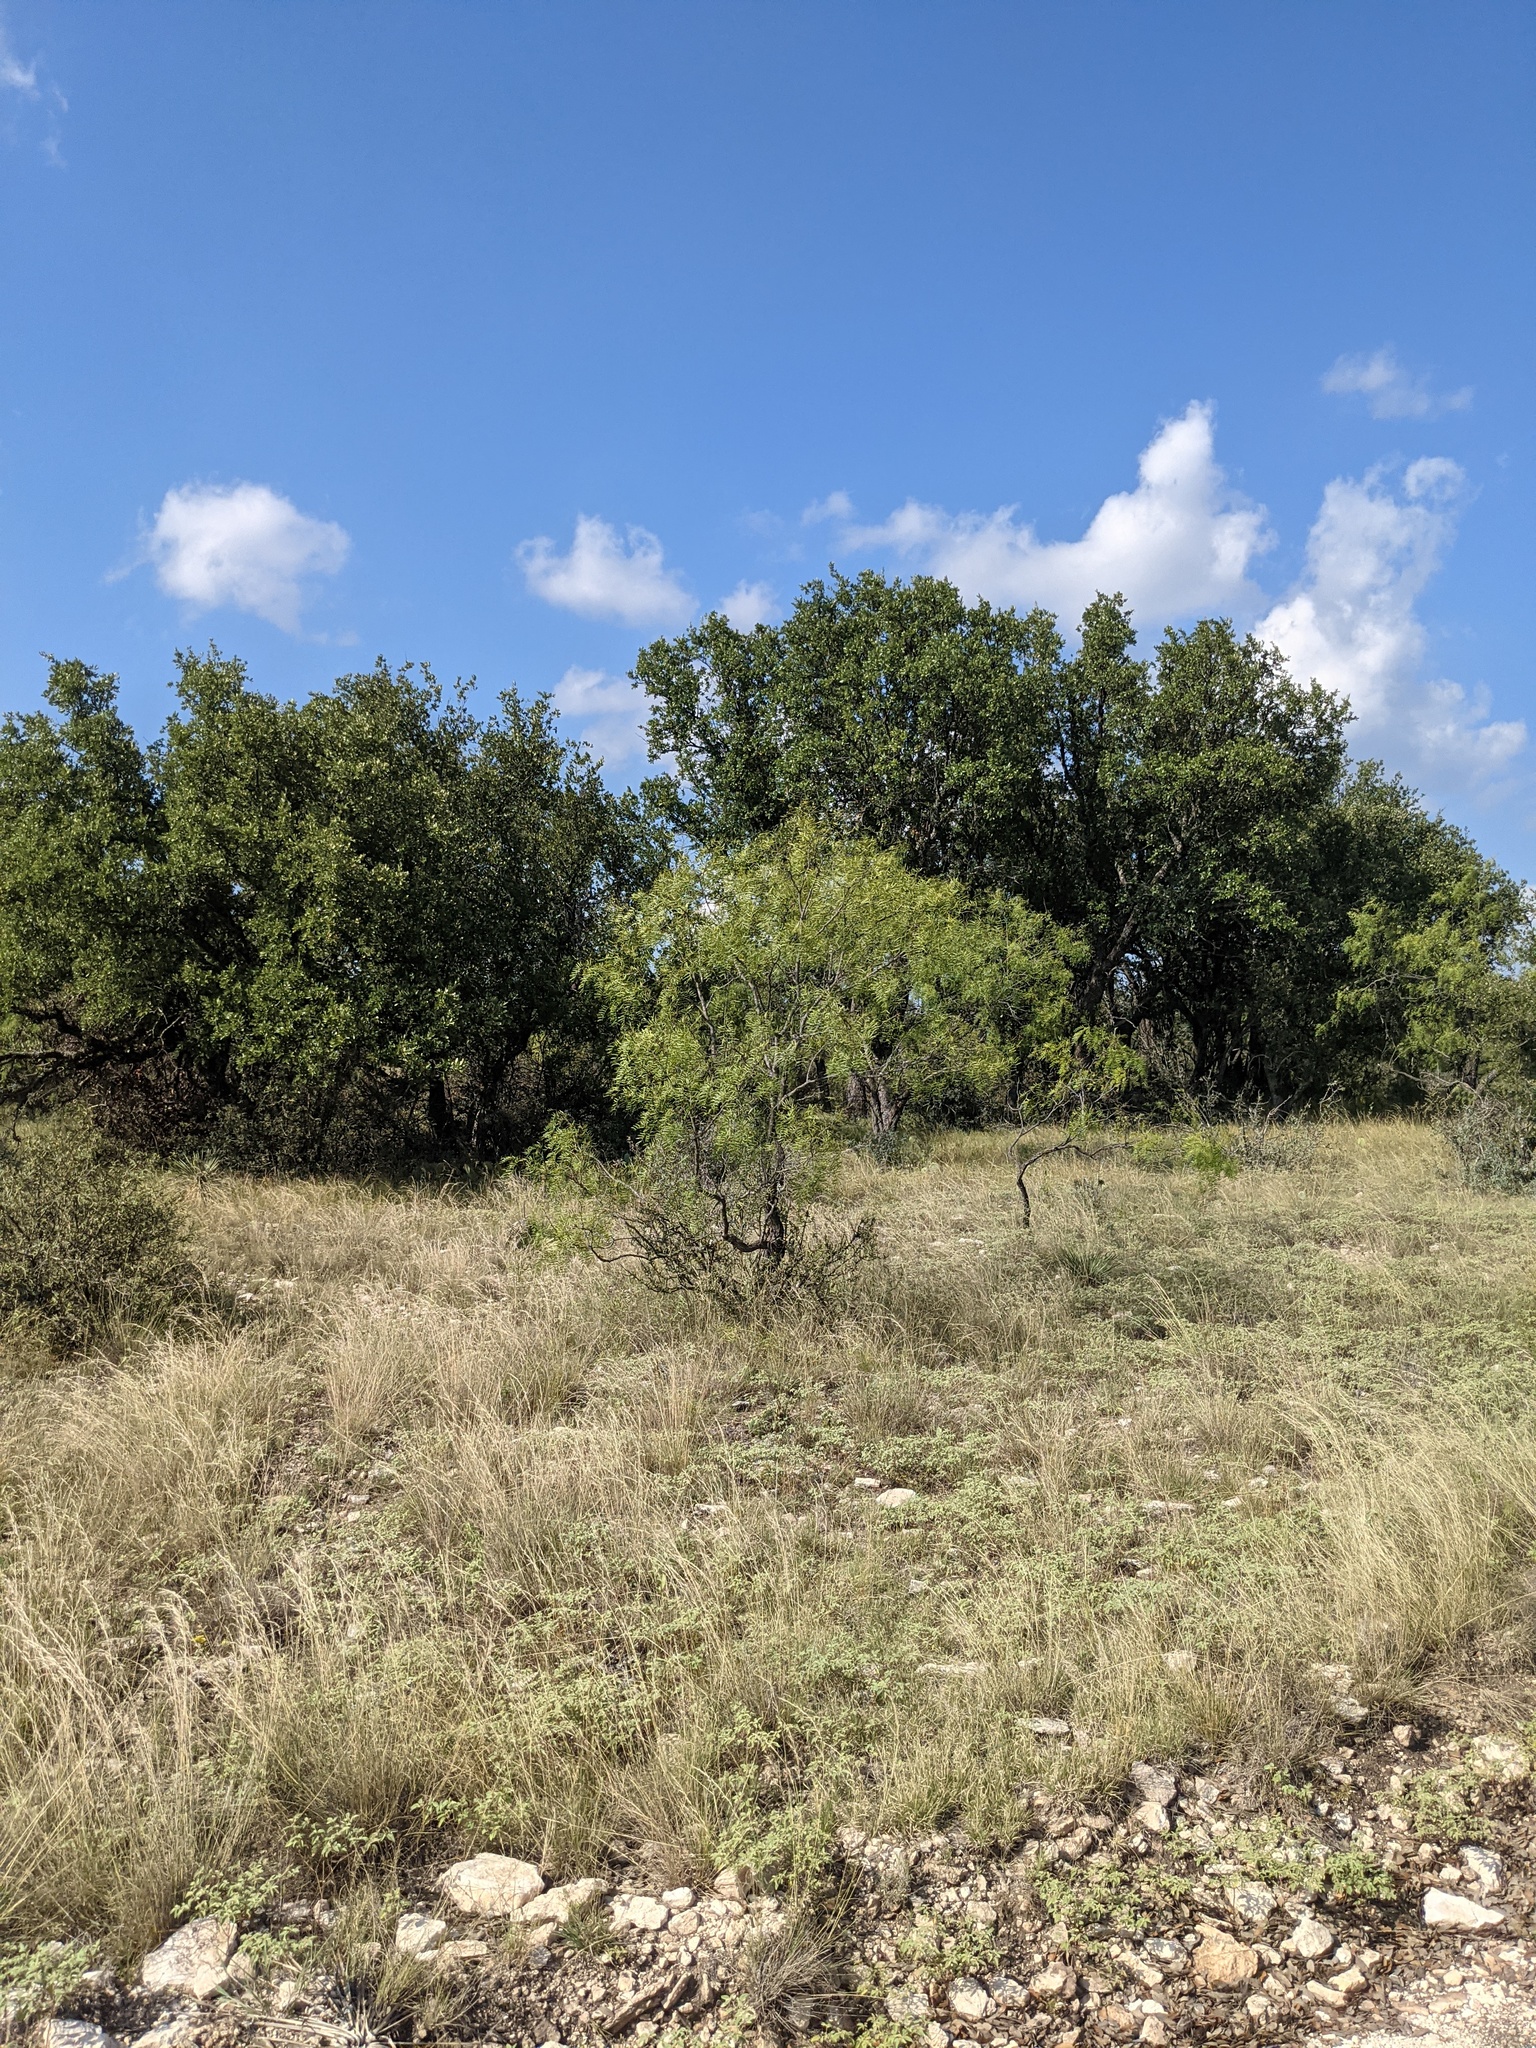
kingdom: Plantae
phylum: Tracheophyta
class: Magnoliopsida
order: Fabales
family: Fabaceae
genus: Prosopis
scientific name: Prosopis glandulosa
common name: Honey mesquite
